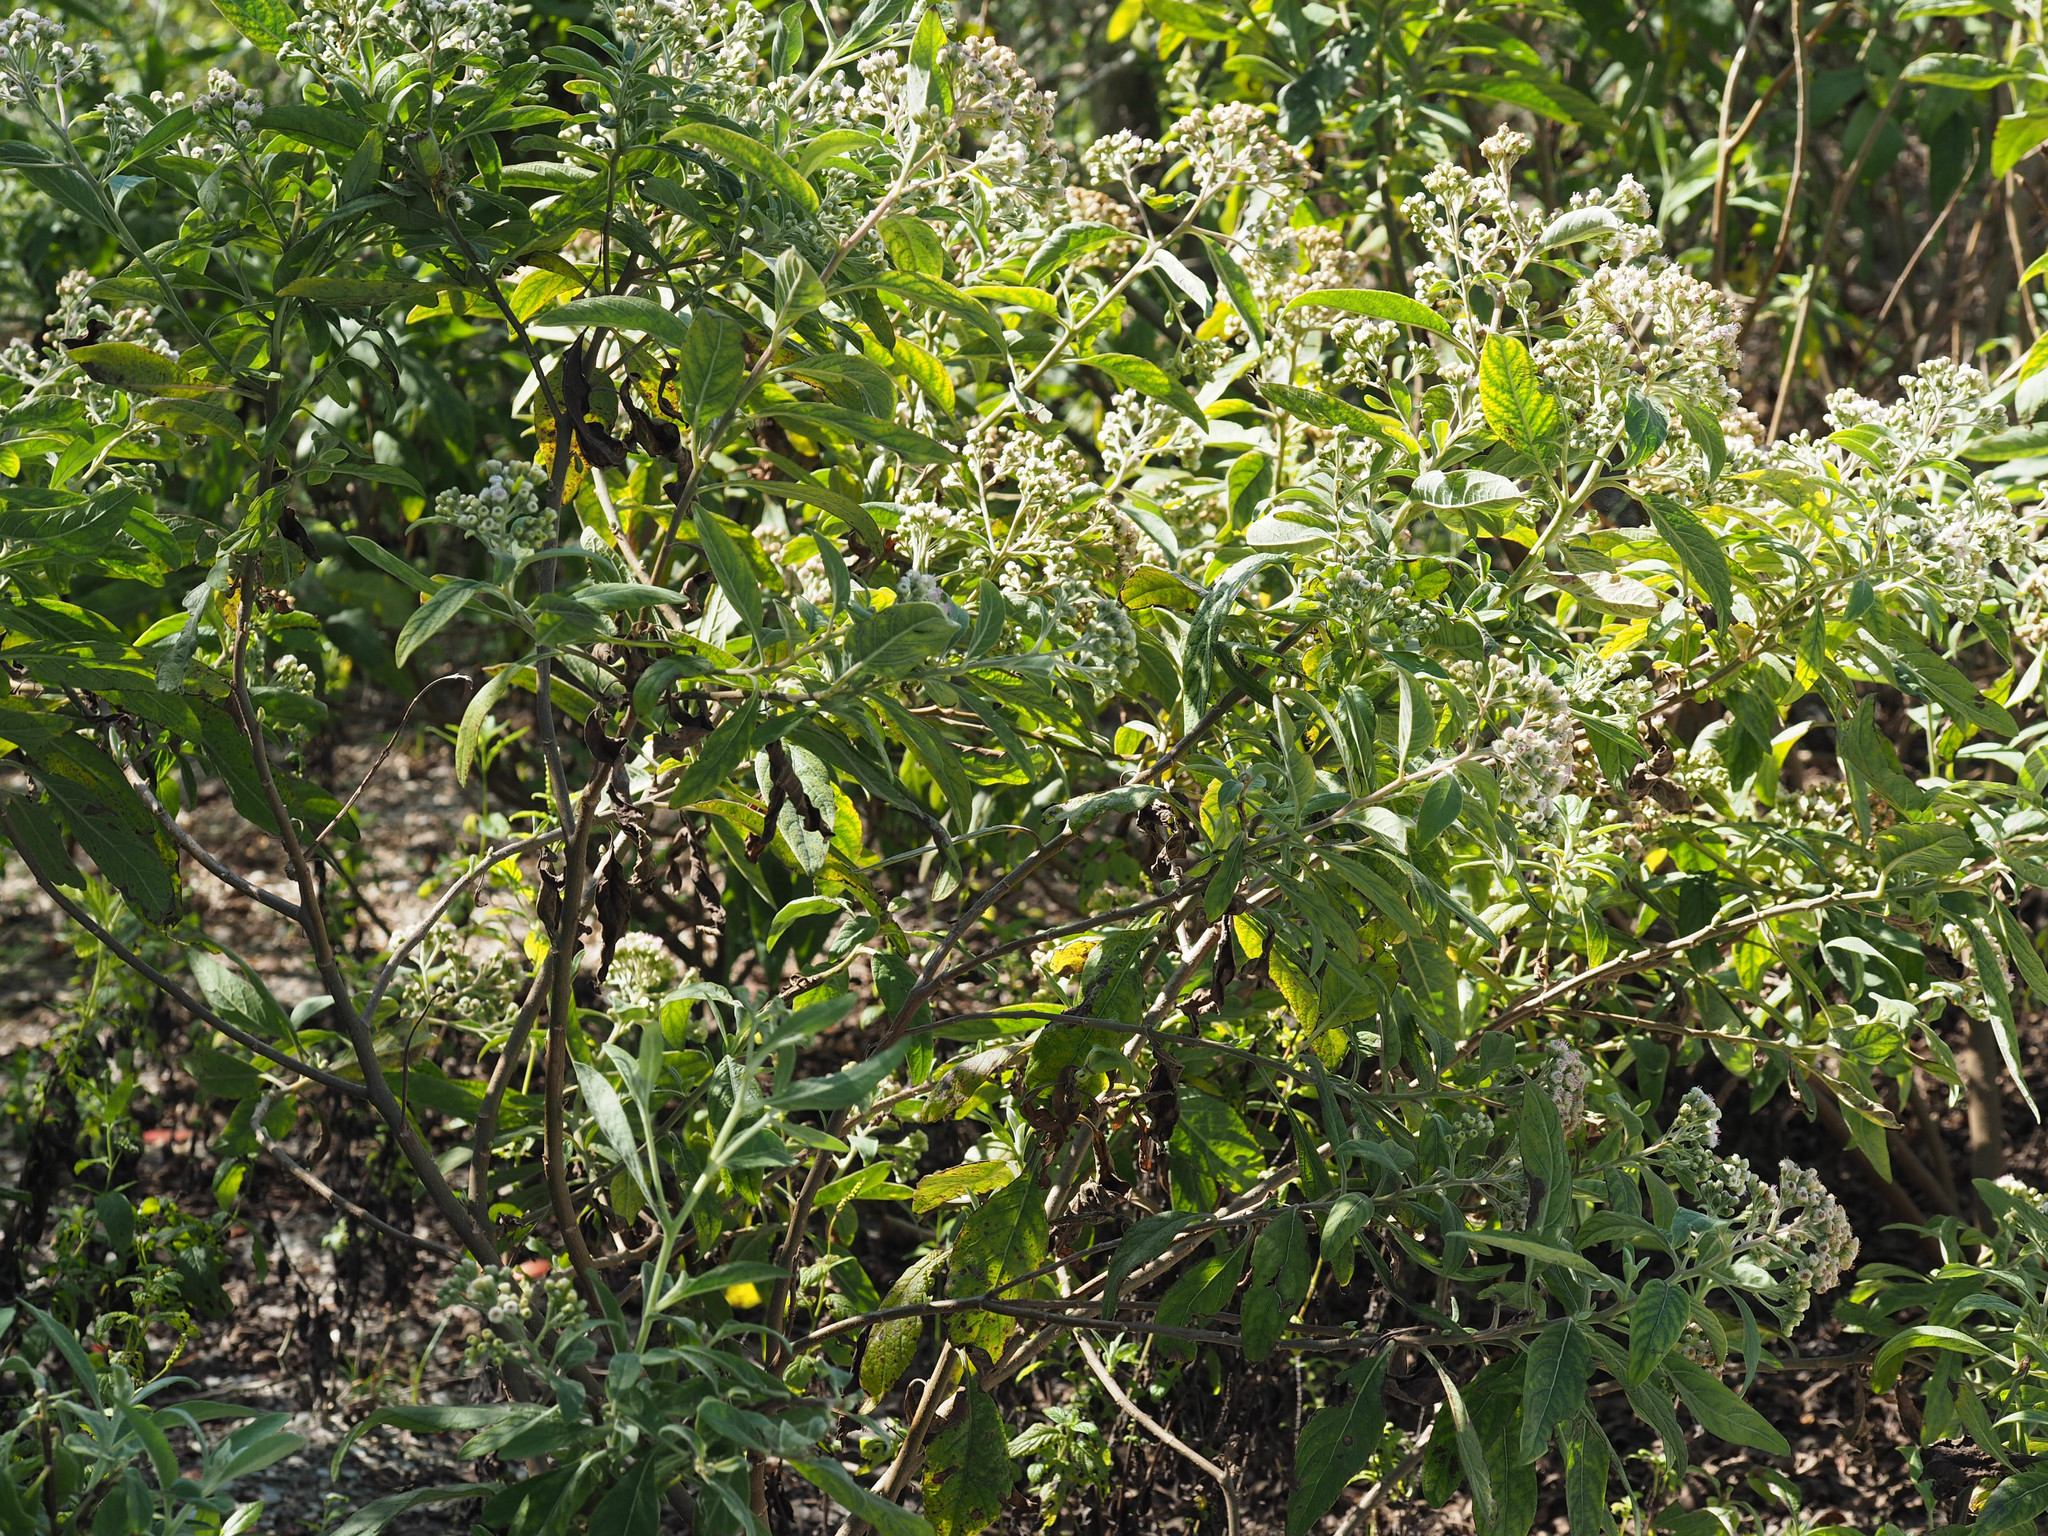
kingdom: Plantae
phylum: Tracheophyta
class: Magnoliopsida
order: Asterales
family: Asteraceae
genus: Pluchea
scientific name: Pluchea carolinensis
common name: Marsh fleabane
